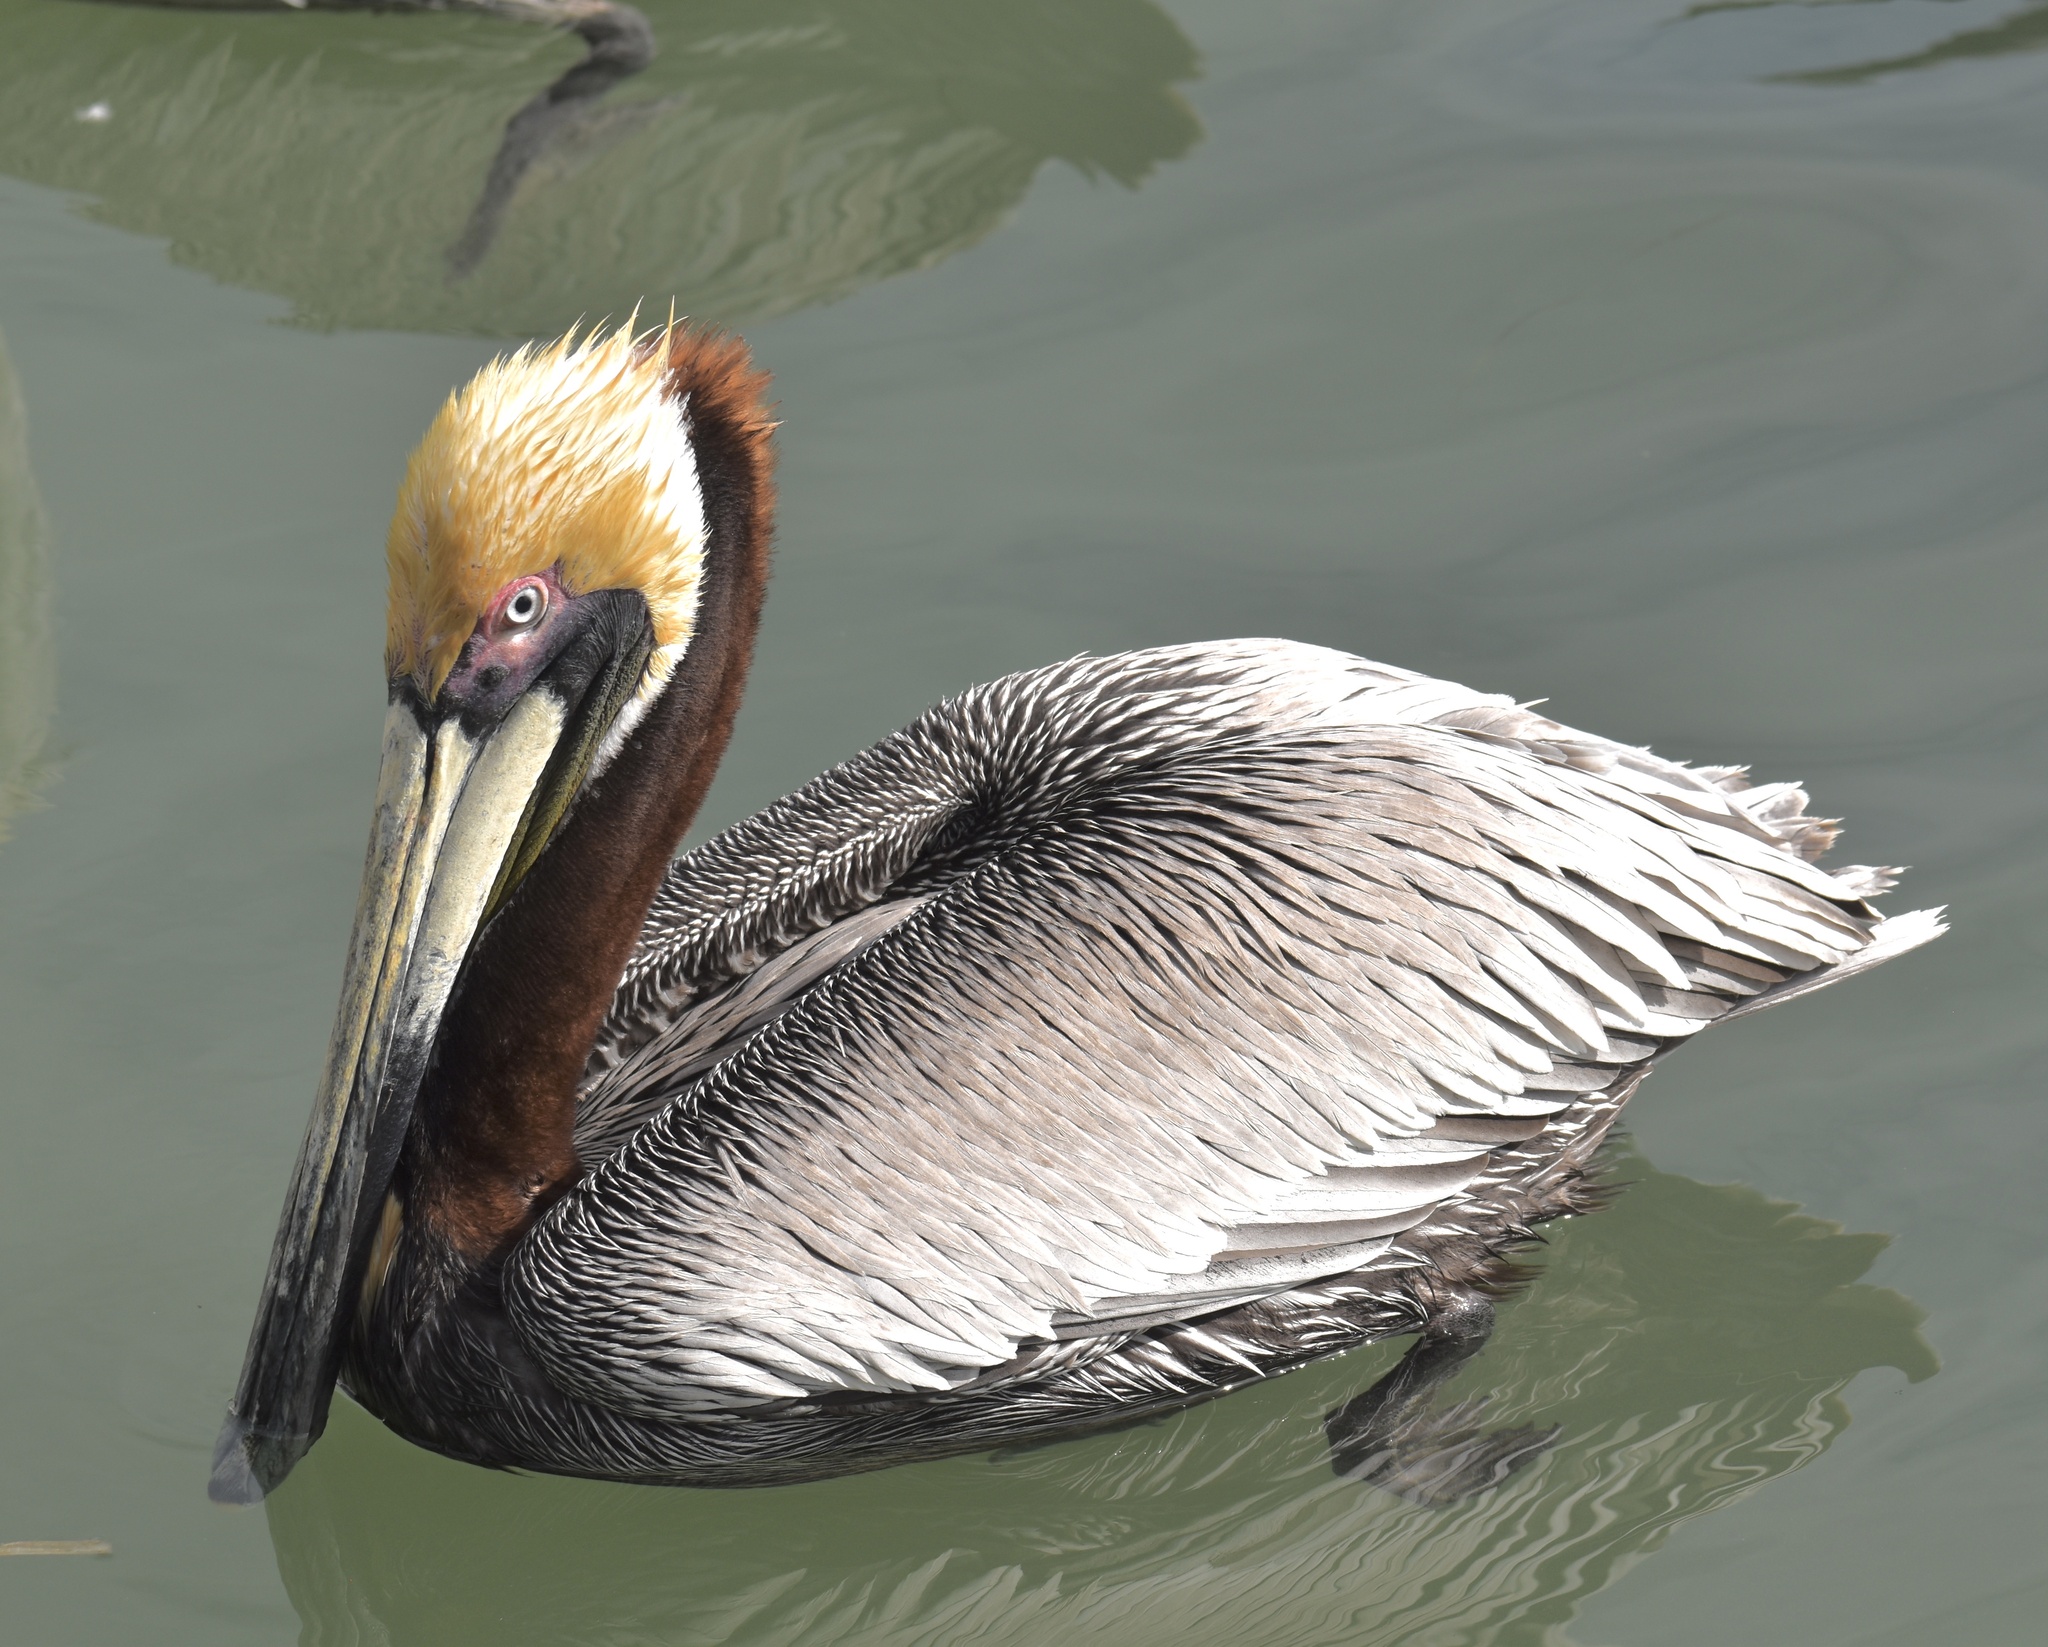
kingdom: Animalia
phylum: Chordata
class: Aves
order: Pelecaniformes
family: Pelecanidae
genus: Pelecanus
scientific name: Pelecanus occidentalis
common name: Brown pelican
